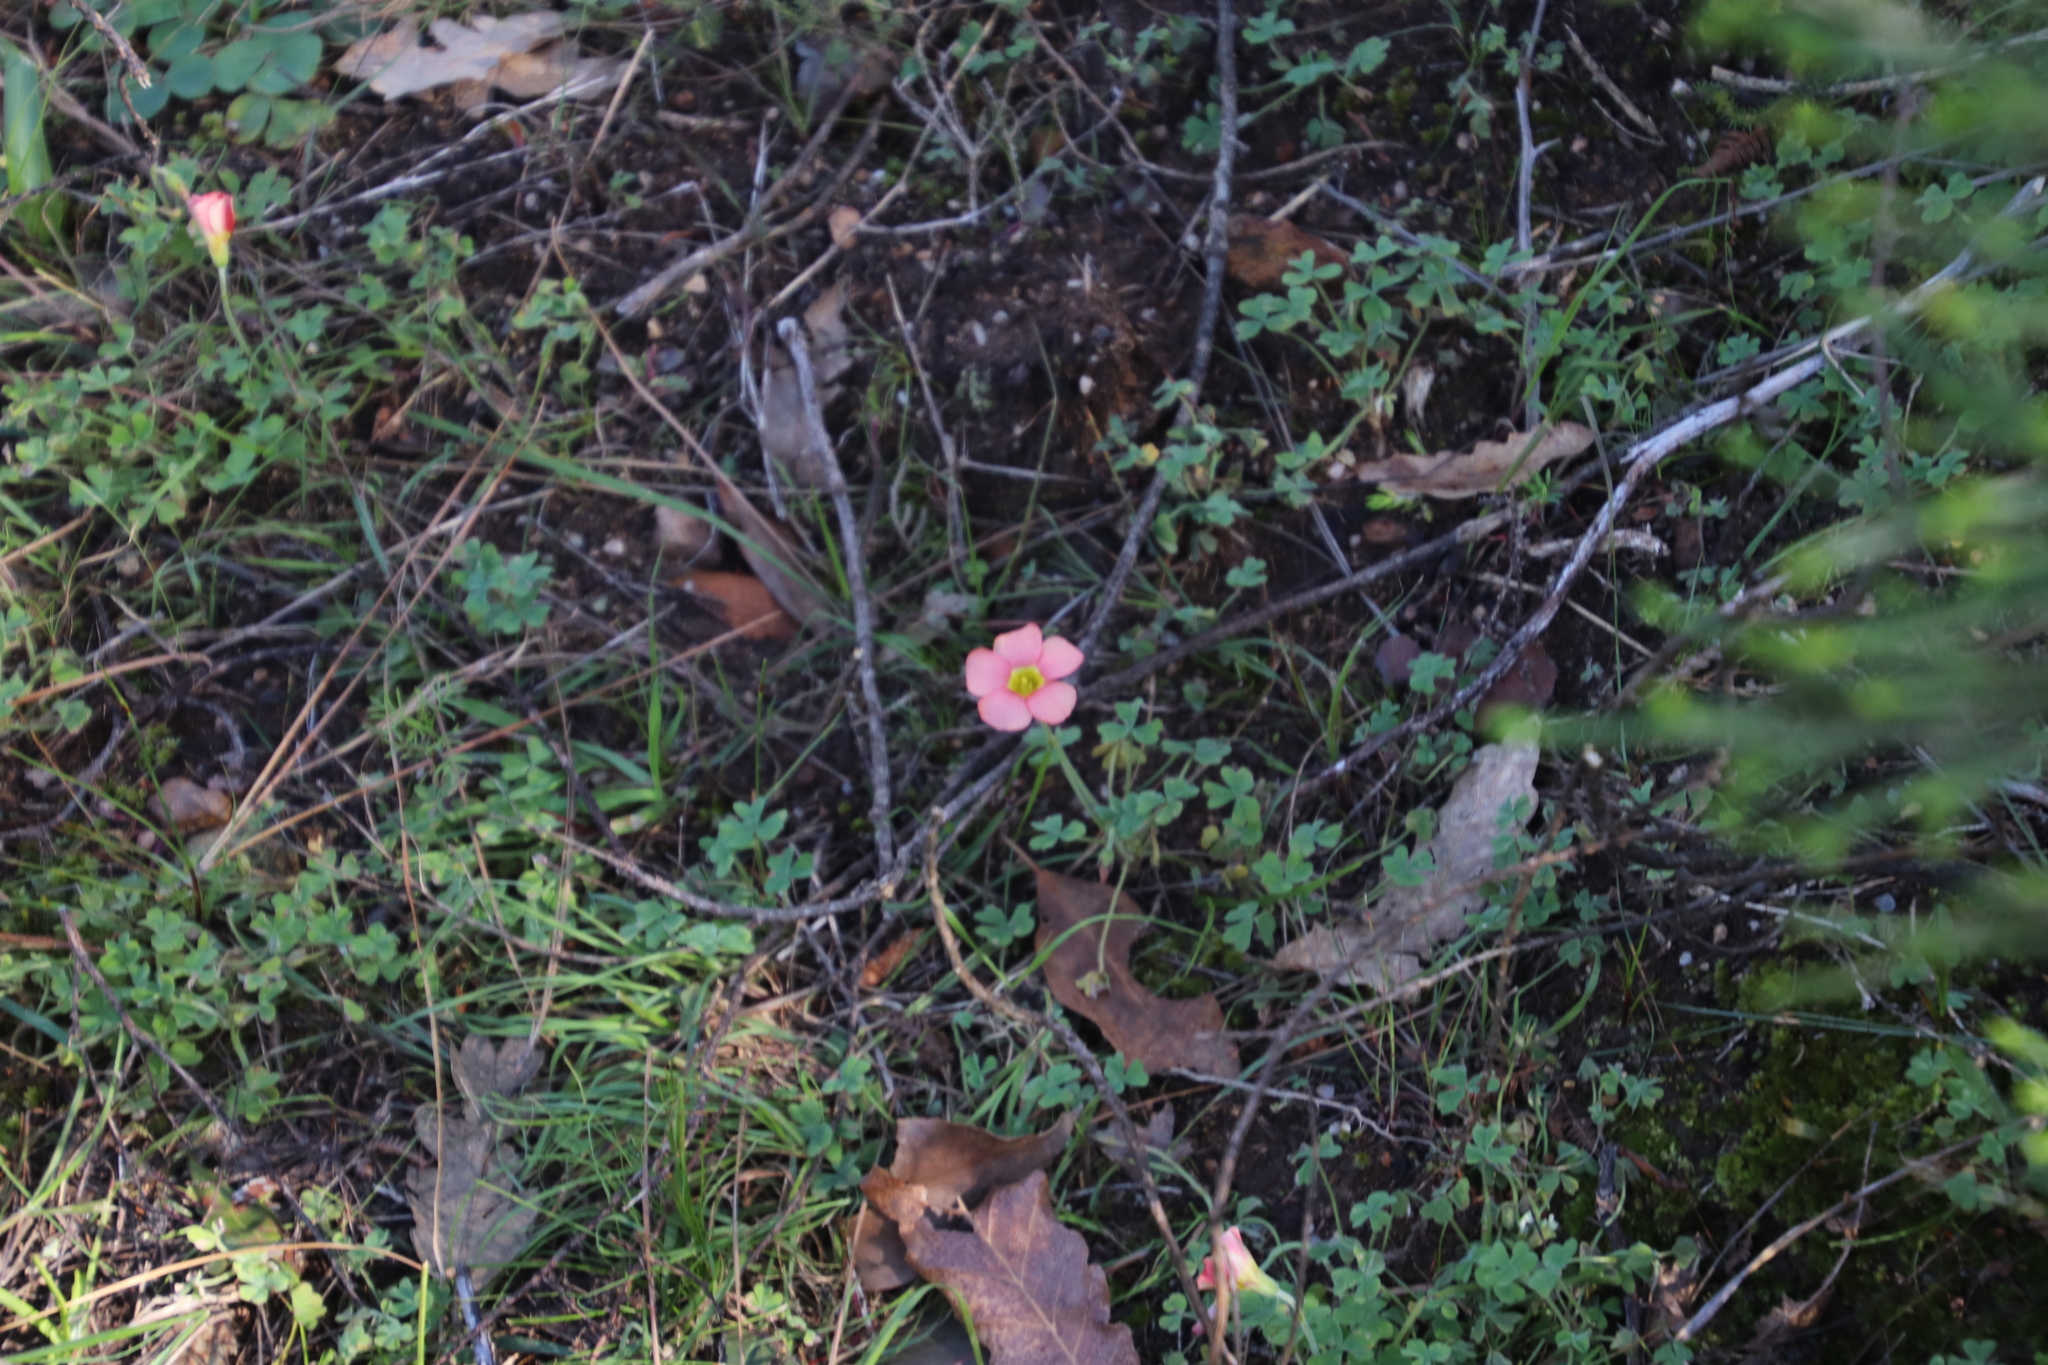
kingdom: Plantae
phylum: Tracheophyta
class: Magnoliopsida
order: Oxalidales
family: Oxalidaceae
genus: Oxalis
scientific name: Oxalis obtusa
